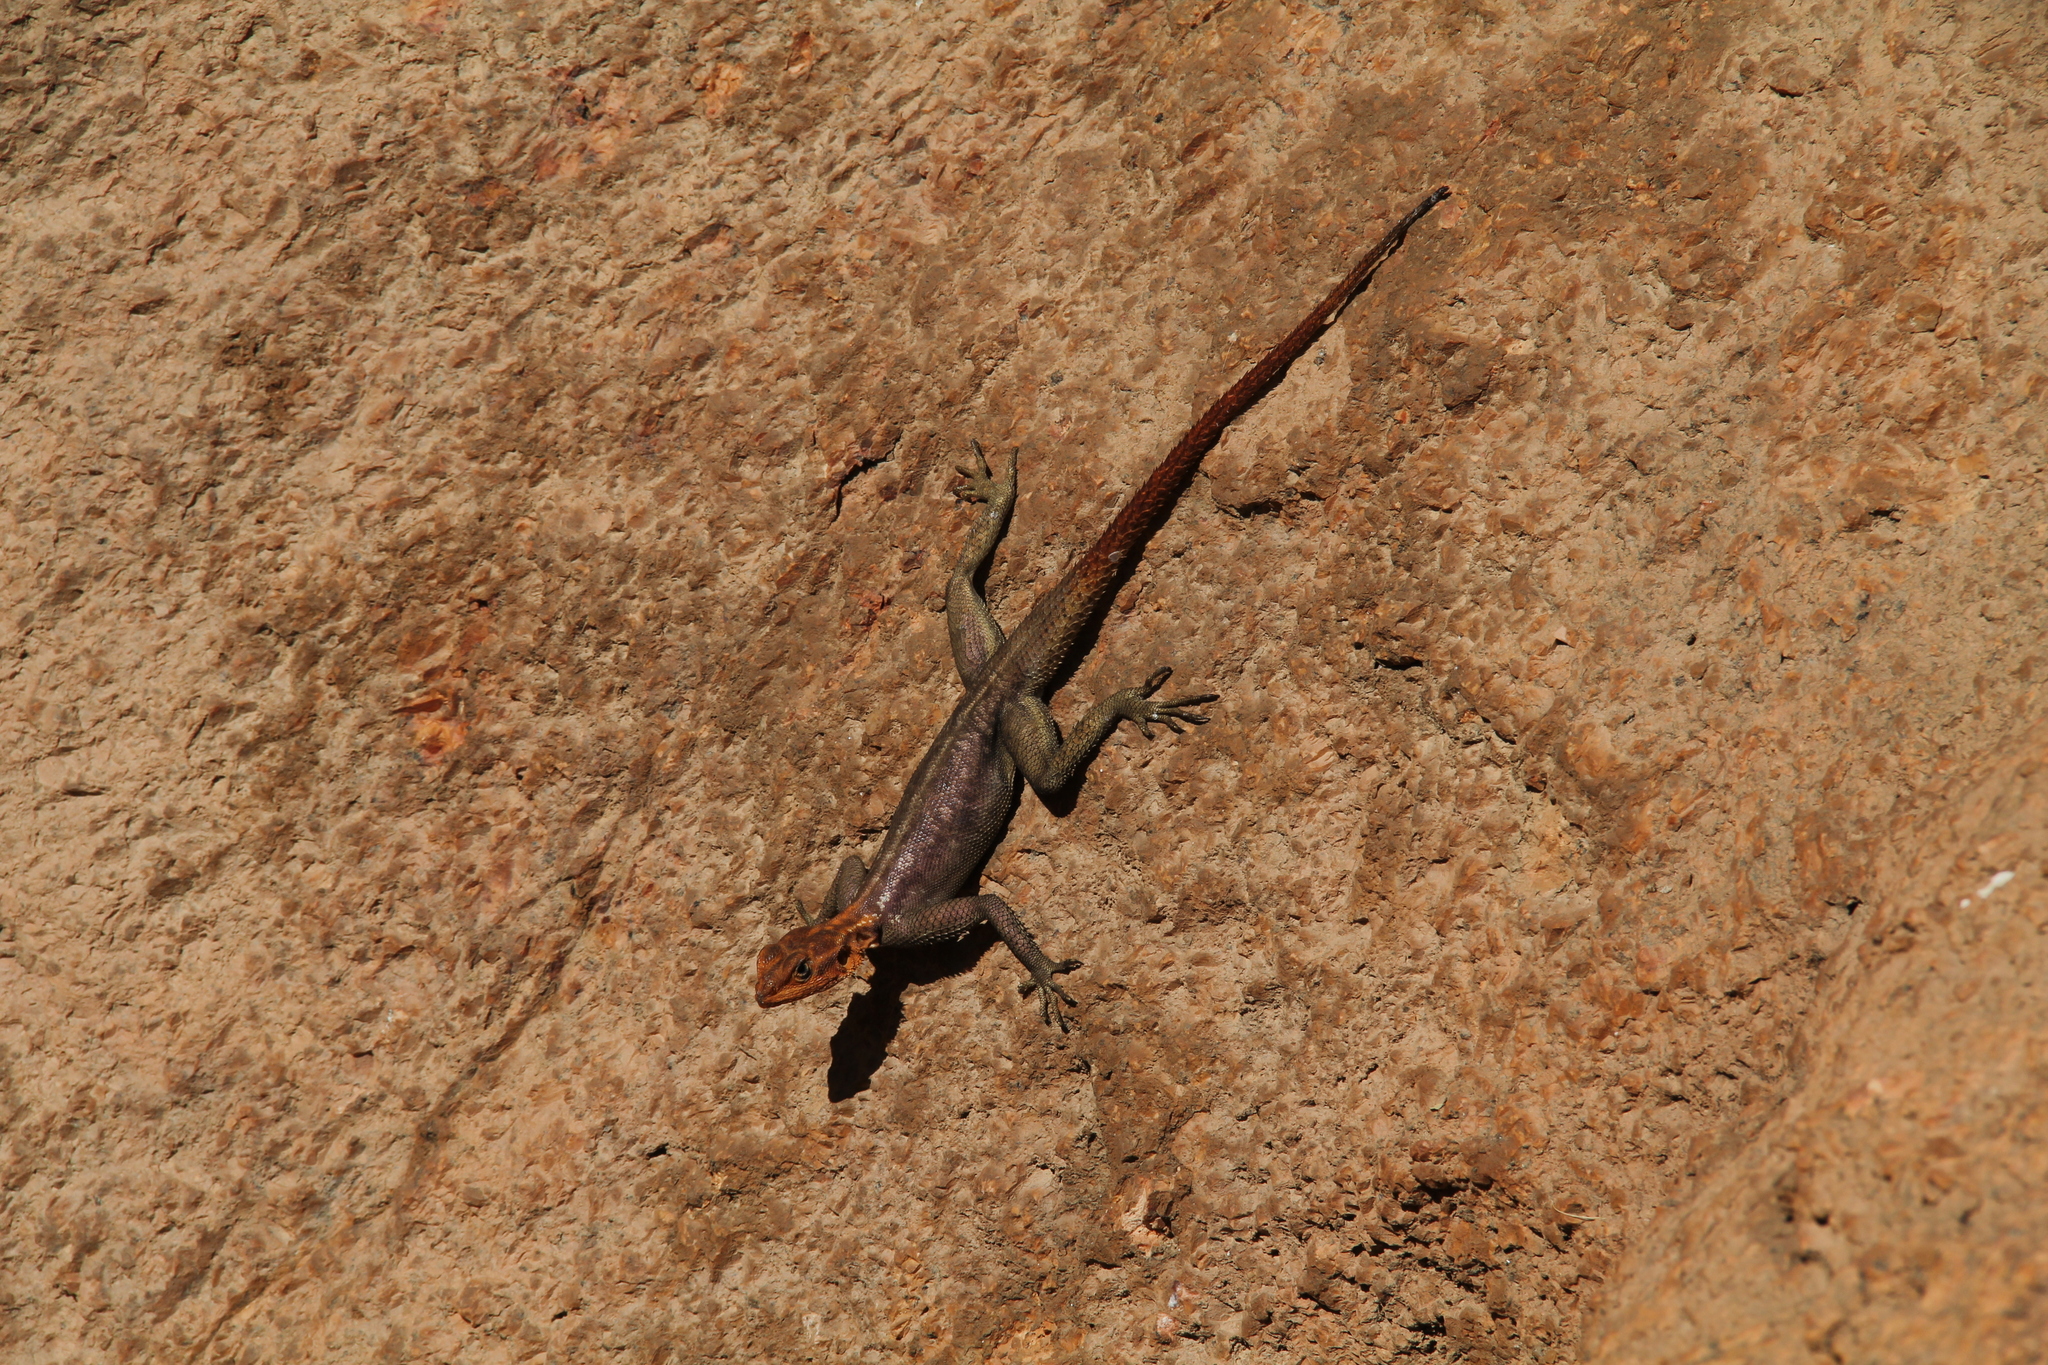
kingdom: Animalia
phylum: Chordata
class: Squamata
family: Agamidae
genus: Agama
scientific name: Agama planiceps
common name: Namib rock agama
